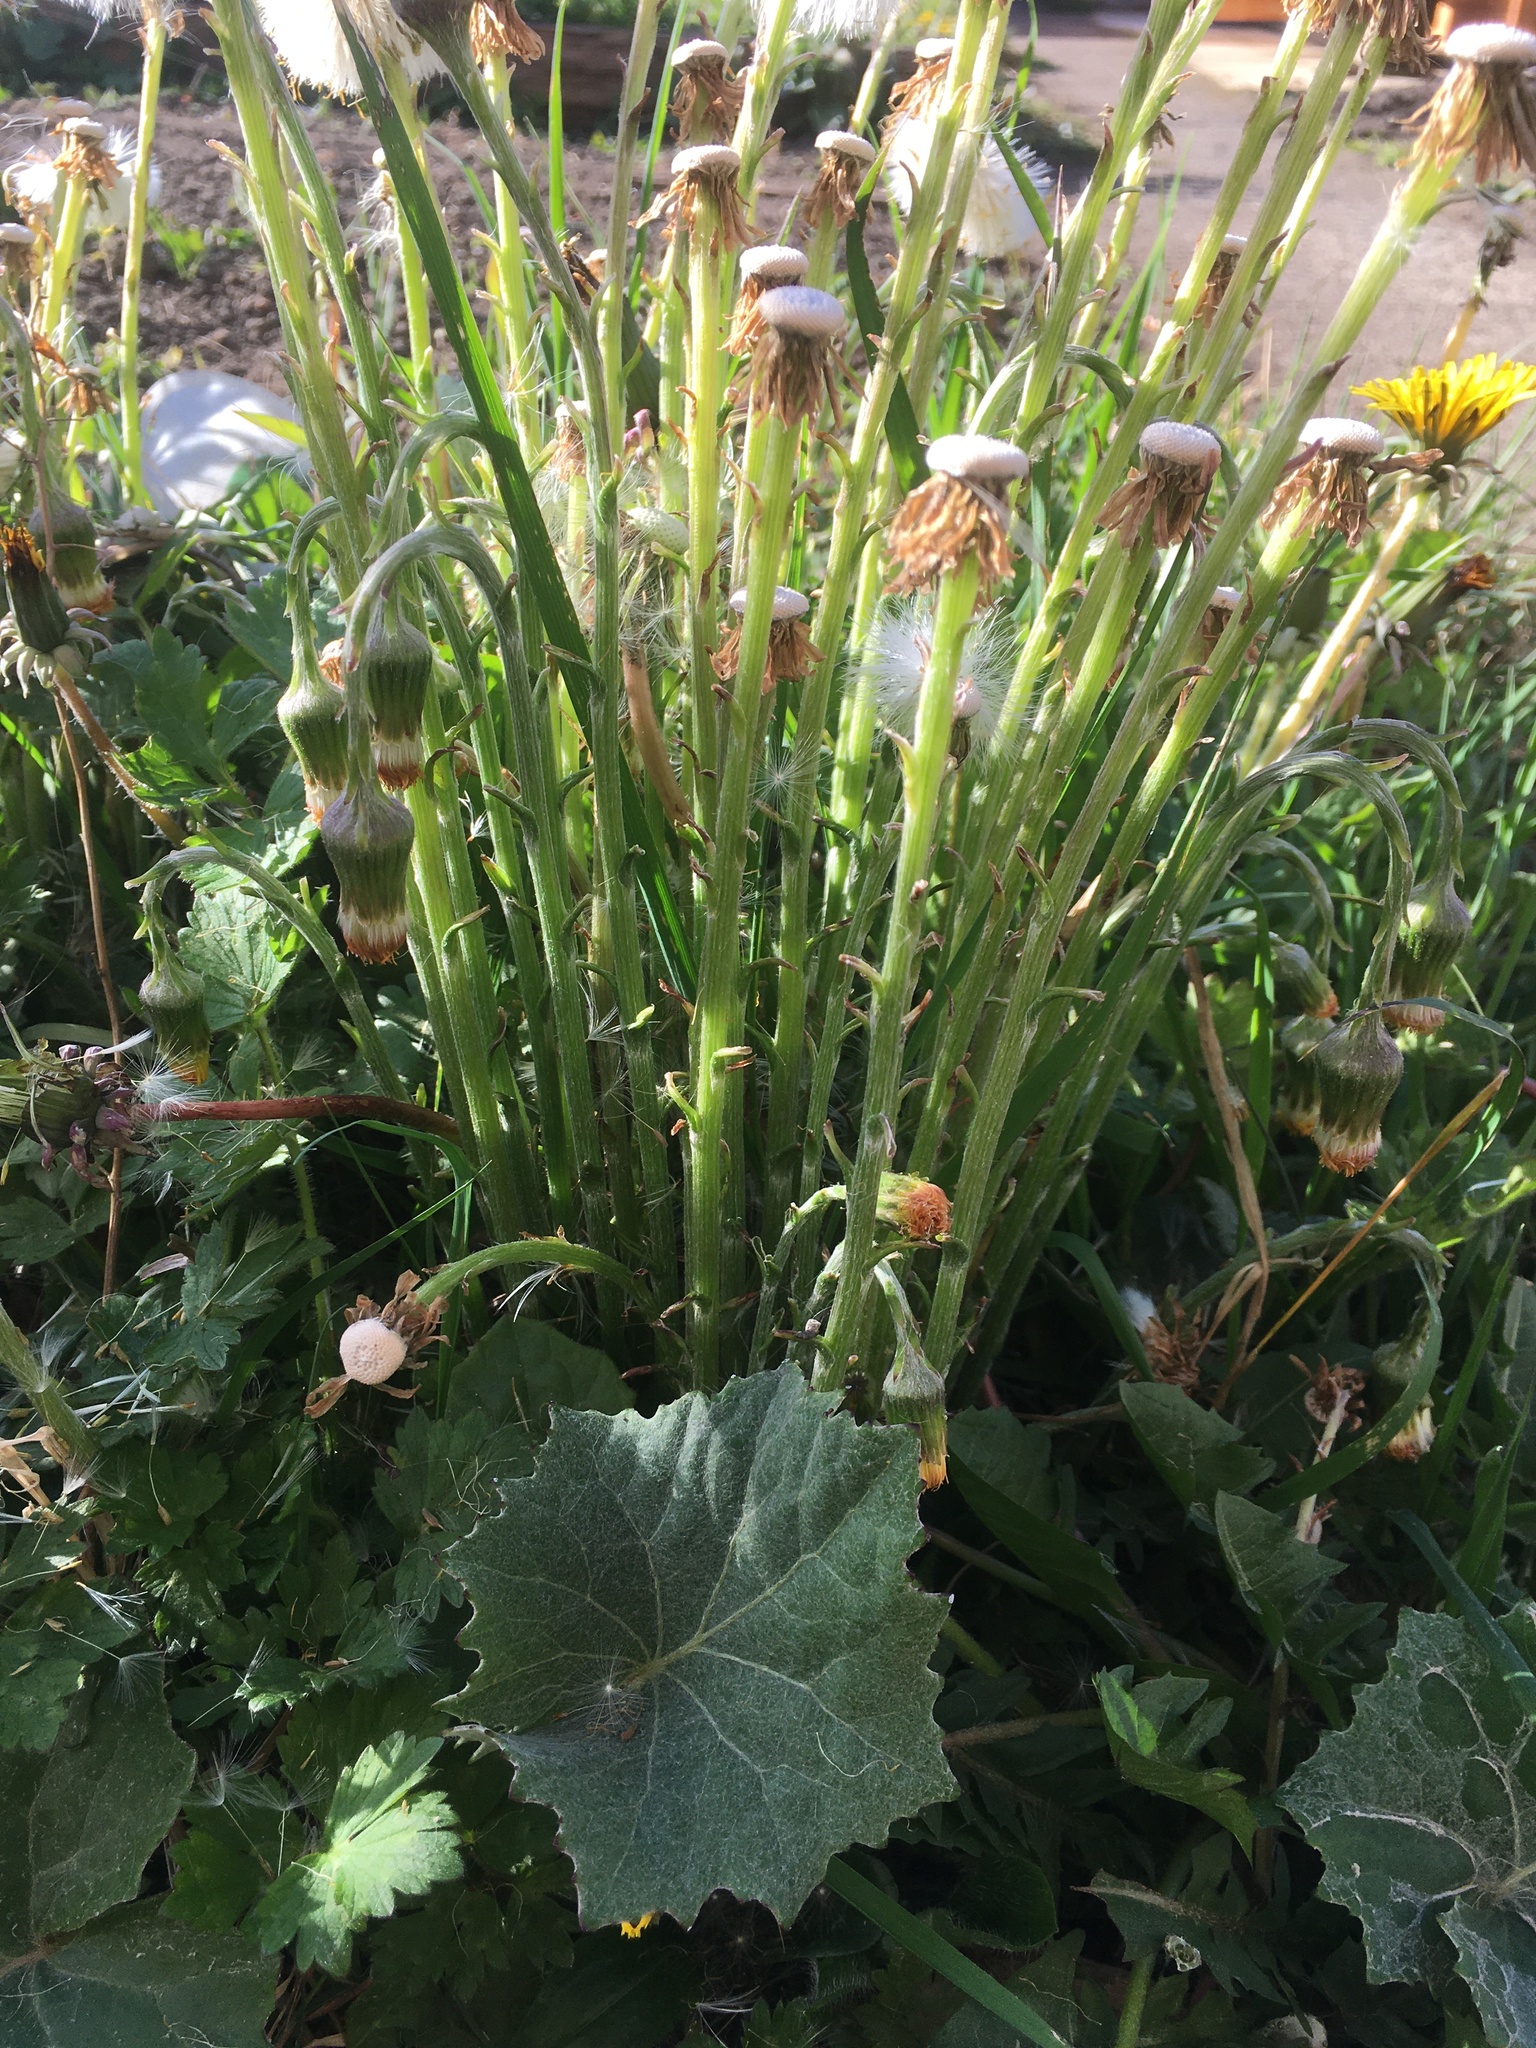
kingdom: Plantae
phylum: Tracheophyta
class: Magnoliopsida
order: Asterales
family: Asteraceae
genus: Tussilago
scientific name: Tussilago farfara
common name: Coltsfoot
